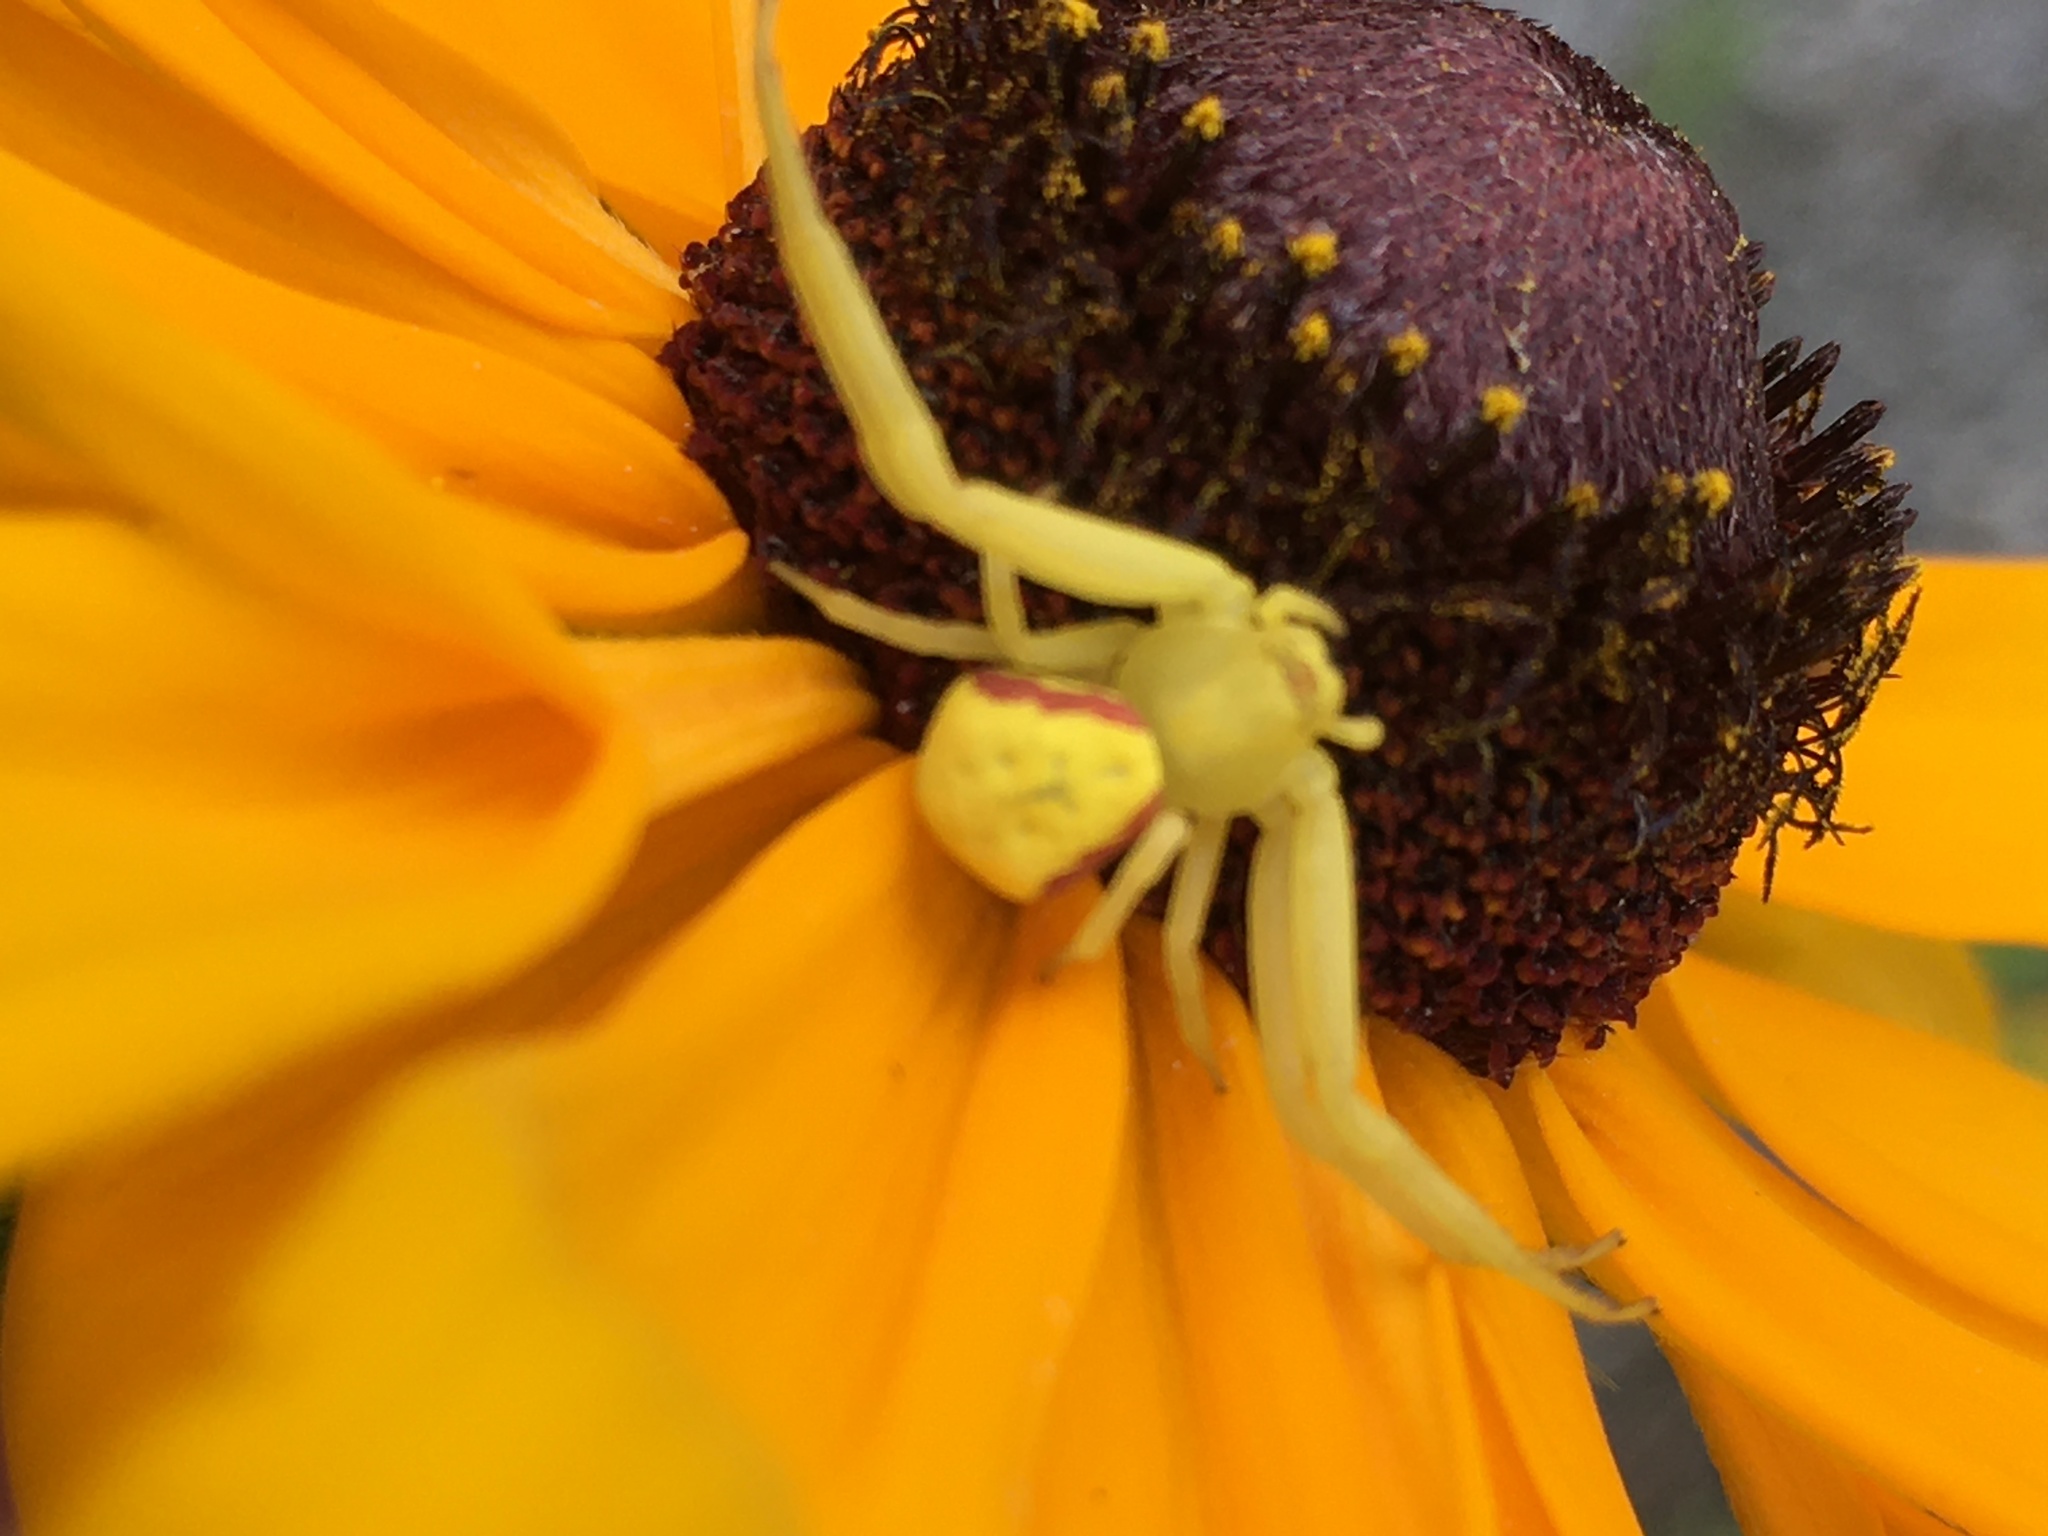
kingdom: Animalia
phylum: Arthropoda
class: Arachnida
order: Araneae
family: Thomisidae
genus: Misumena
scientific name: Misumena vatia
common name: Goldenrod crab spider
